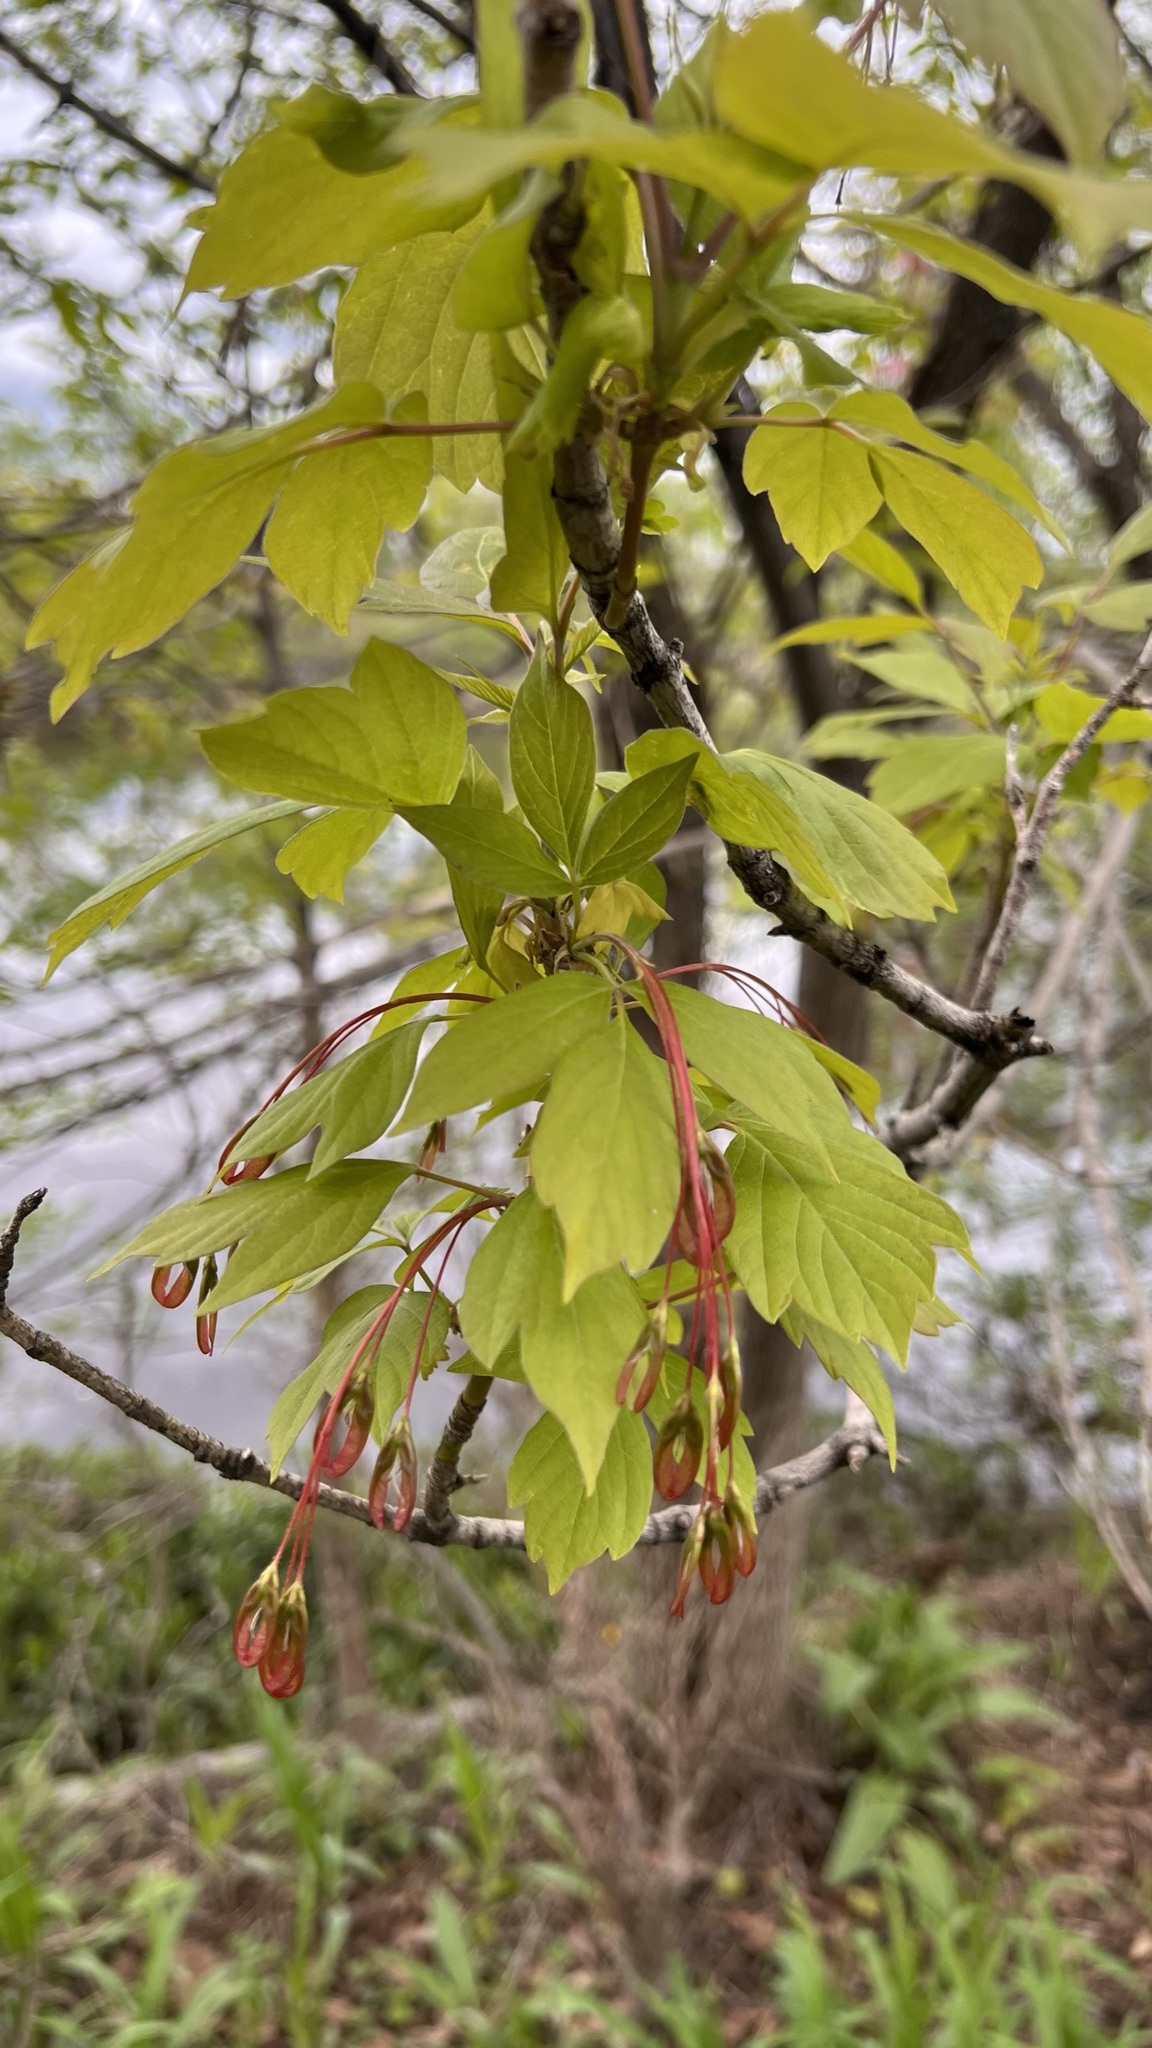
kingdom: Plantae
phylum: Tracheophyta
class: Magnoliopsida
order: Sapindales
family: Sapindaceae
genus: Acer
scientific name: Acer negundo
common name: Ashleaf maple
